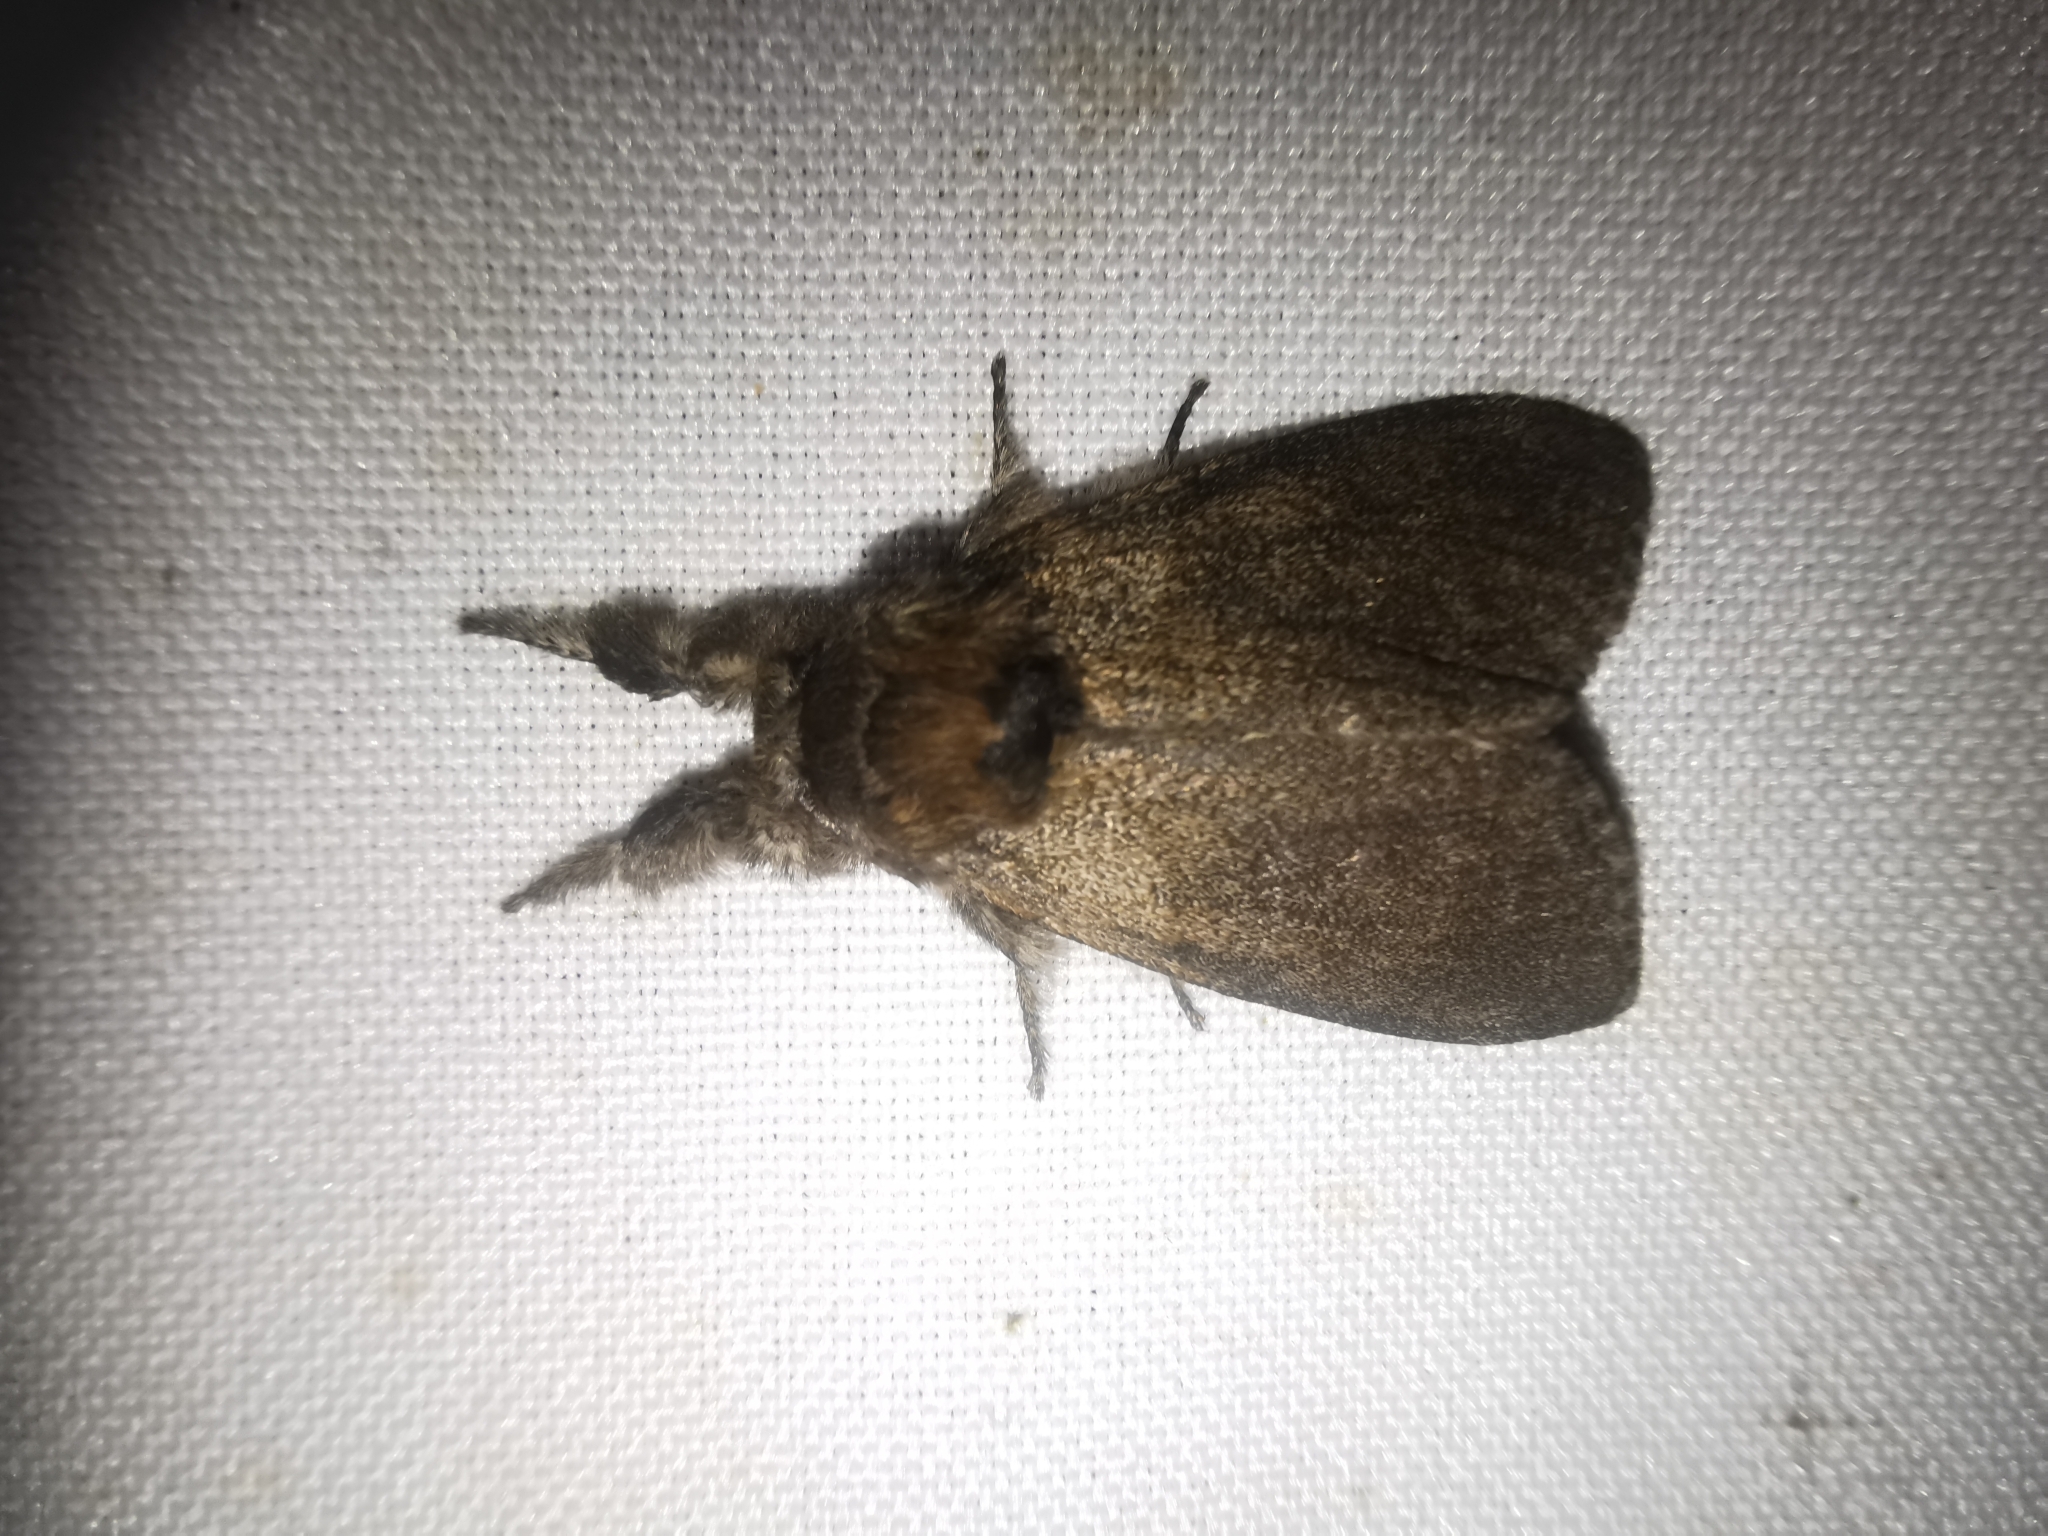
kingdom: Animalia
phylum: Arthropoda
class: Insecta
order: Lepidoptera
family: Erebidae
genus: Calliteara
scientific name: Calliteara pudibunda
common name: Pale tussock
